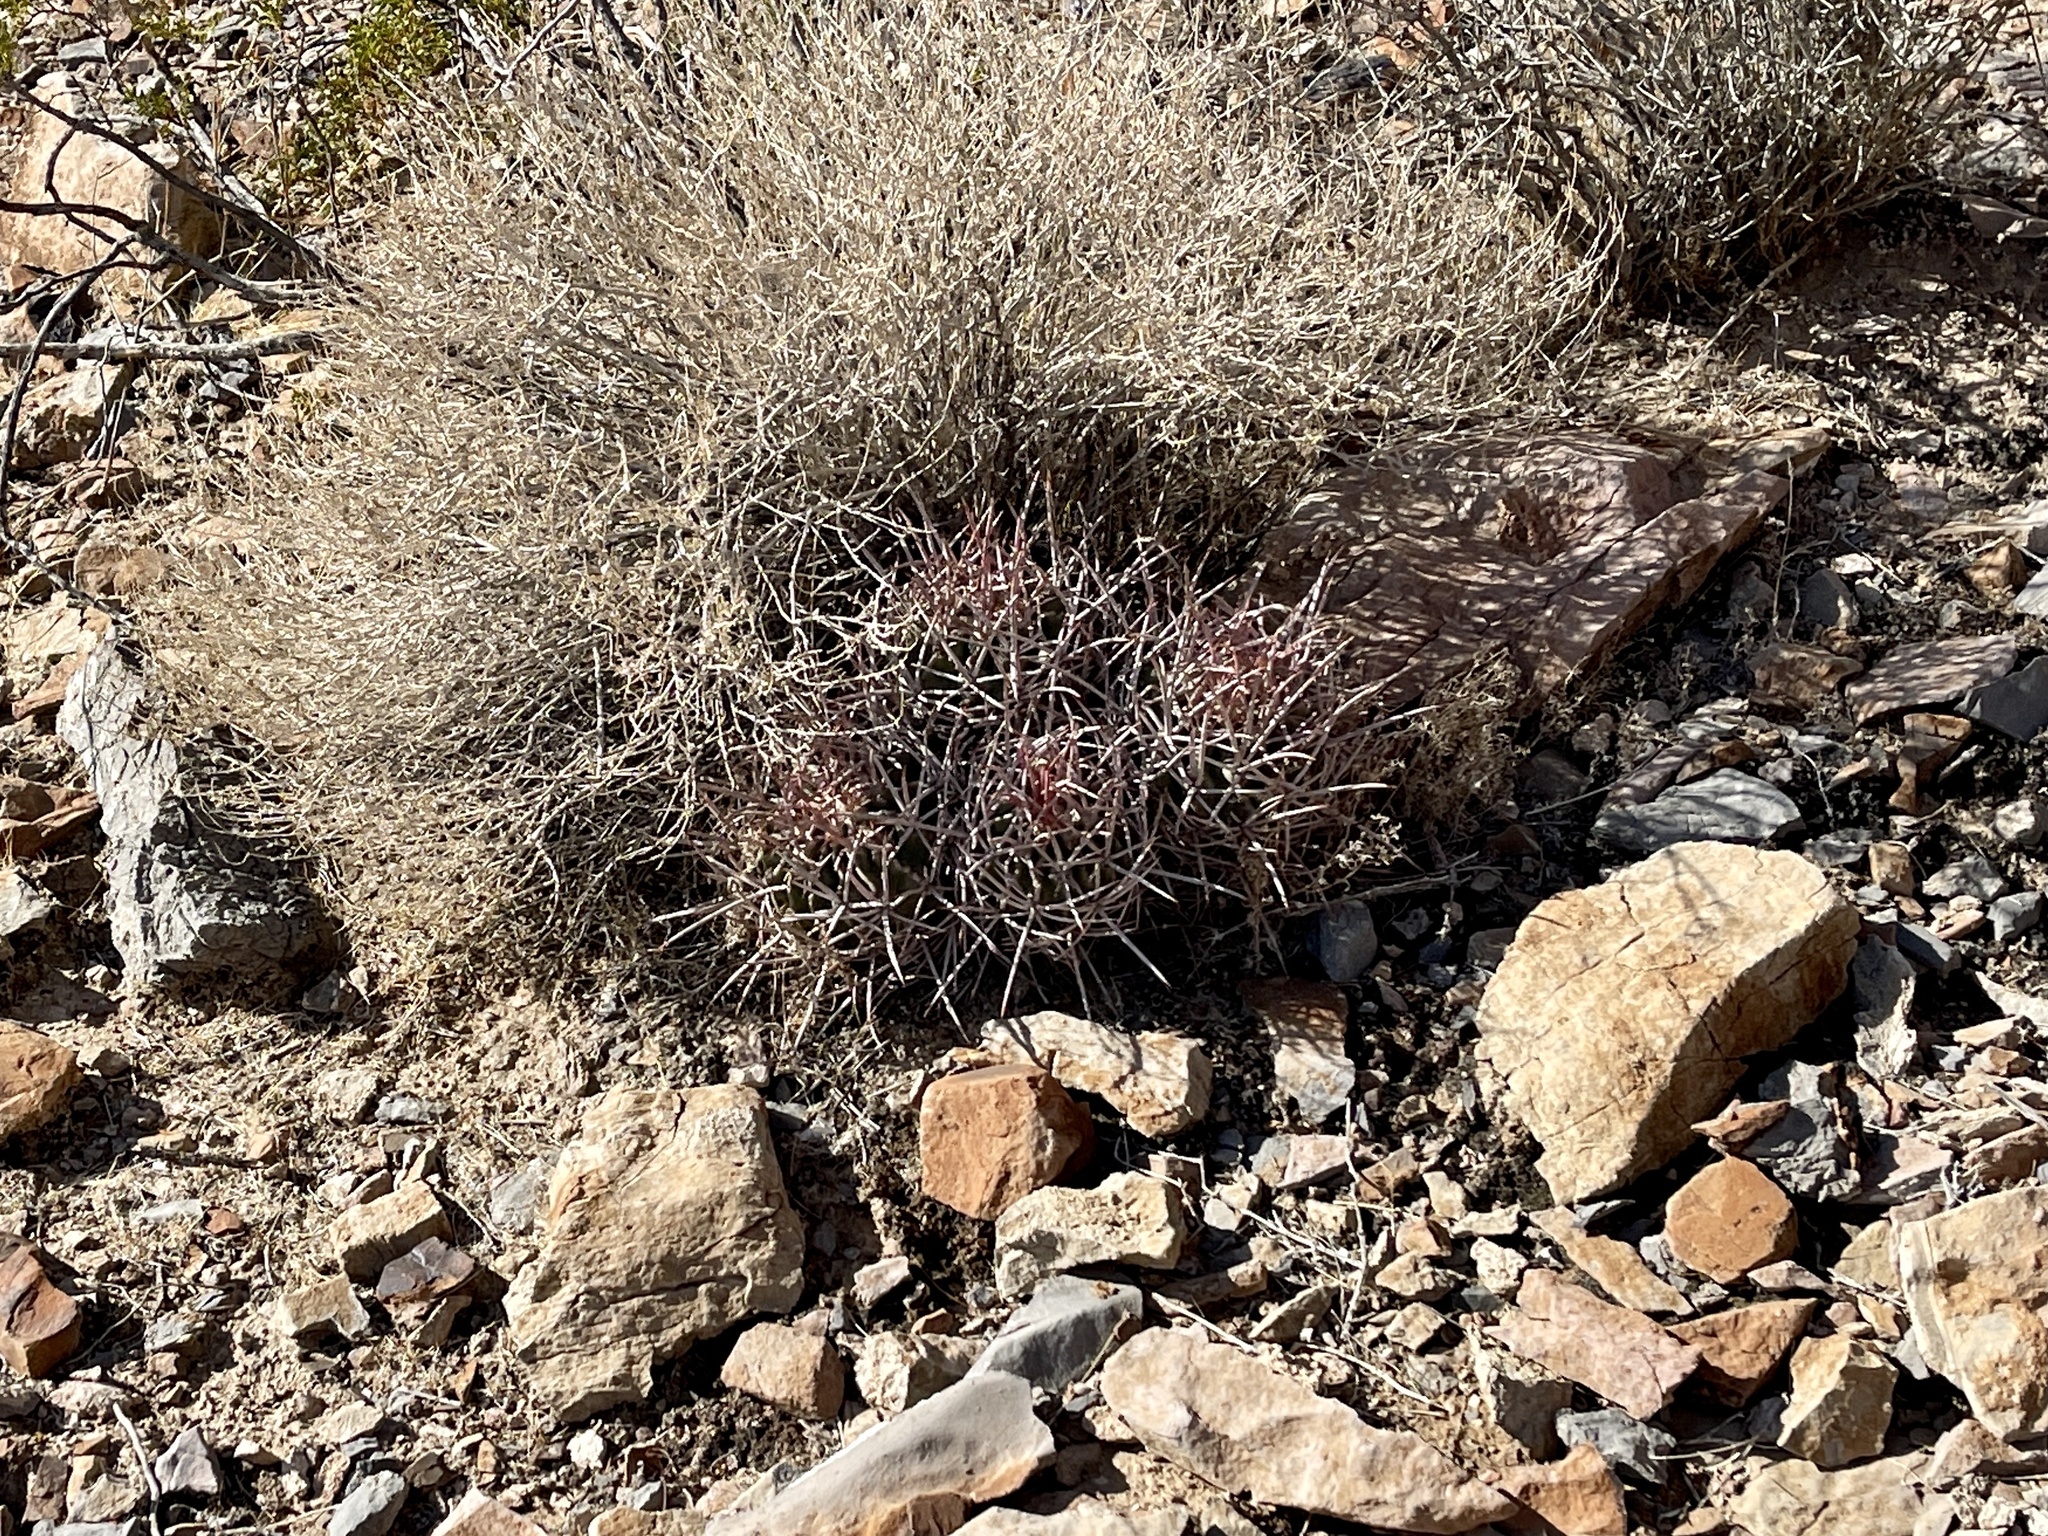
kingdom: Plantae
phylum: Tracheophyta
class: Magnoliopsida
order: Caryophyllales
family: Cactaceae
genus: Echinocactus
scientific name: Echinocactus polycephalus
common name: Cottontop cactus
